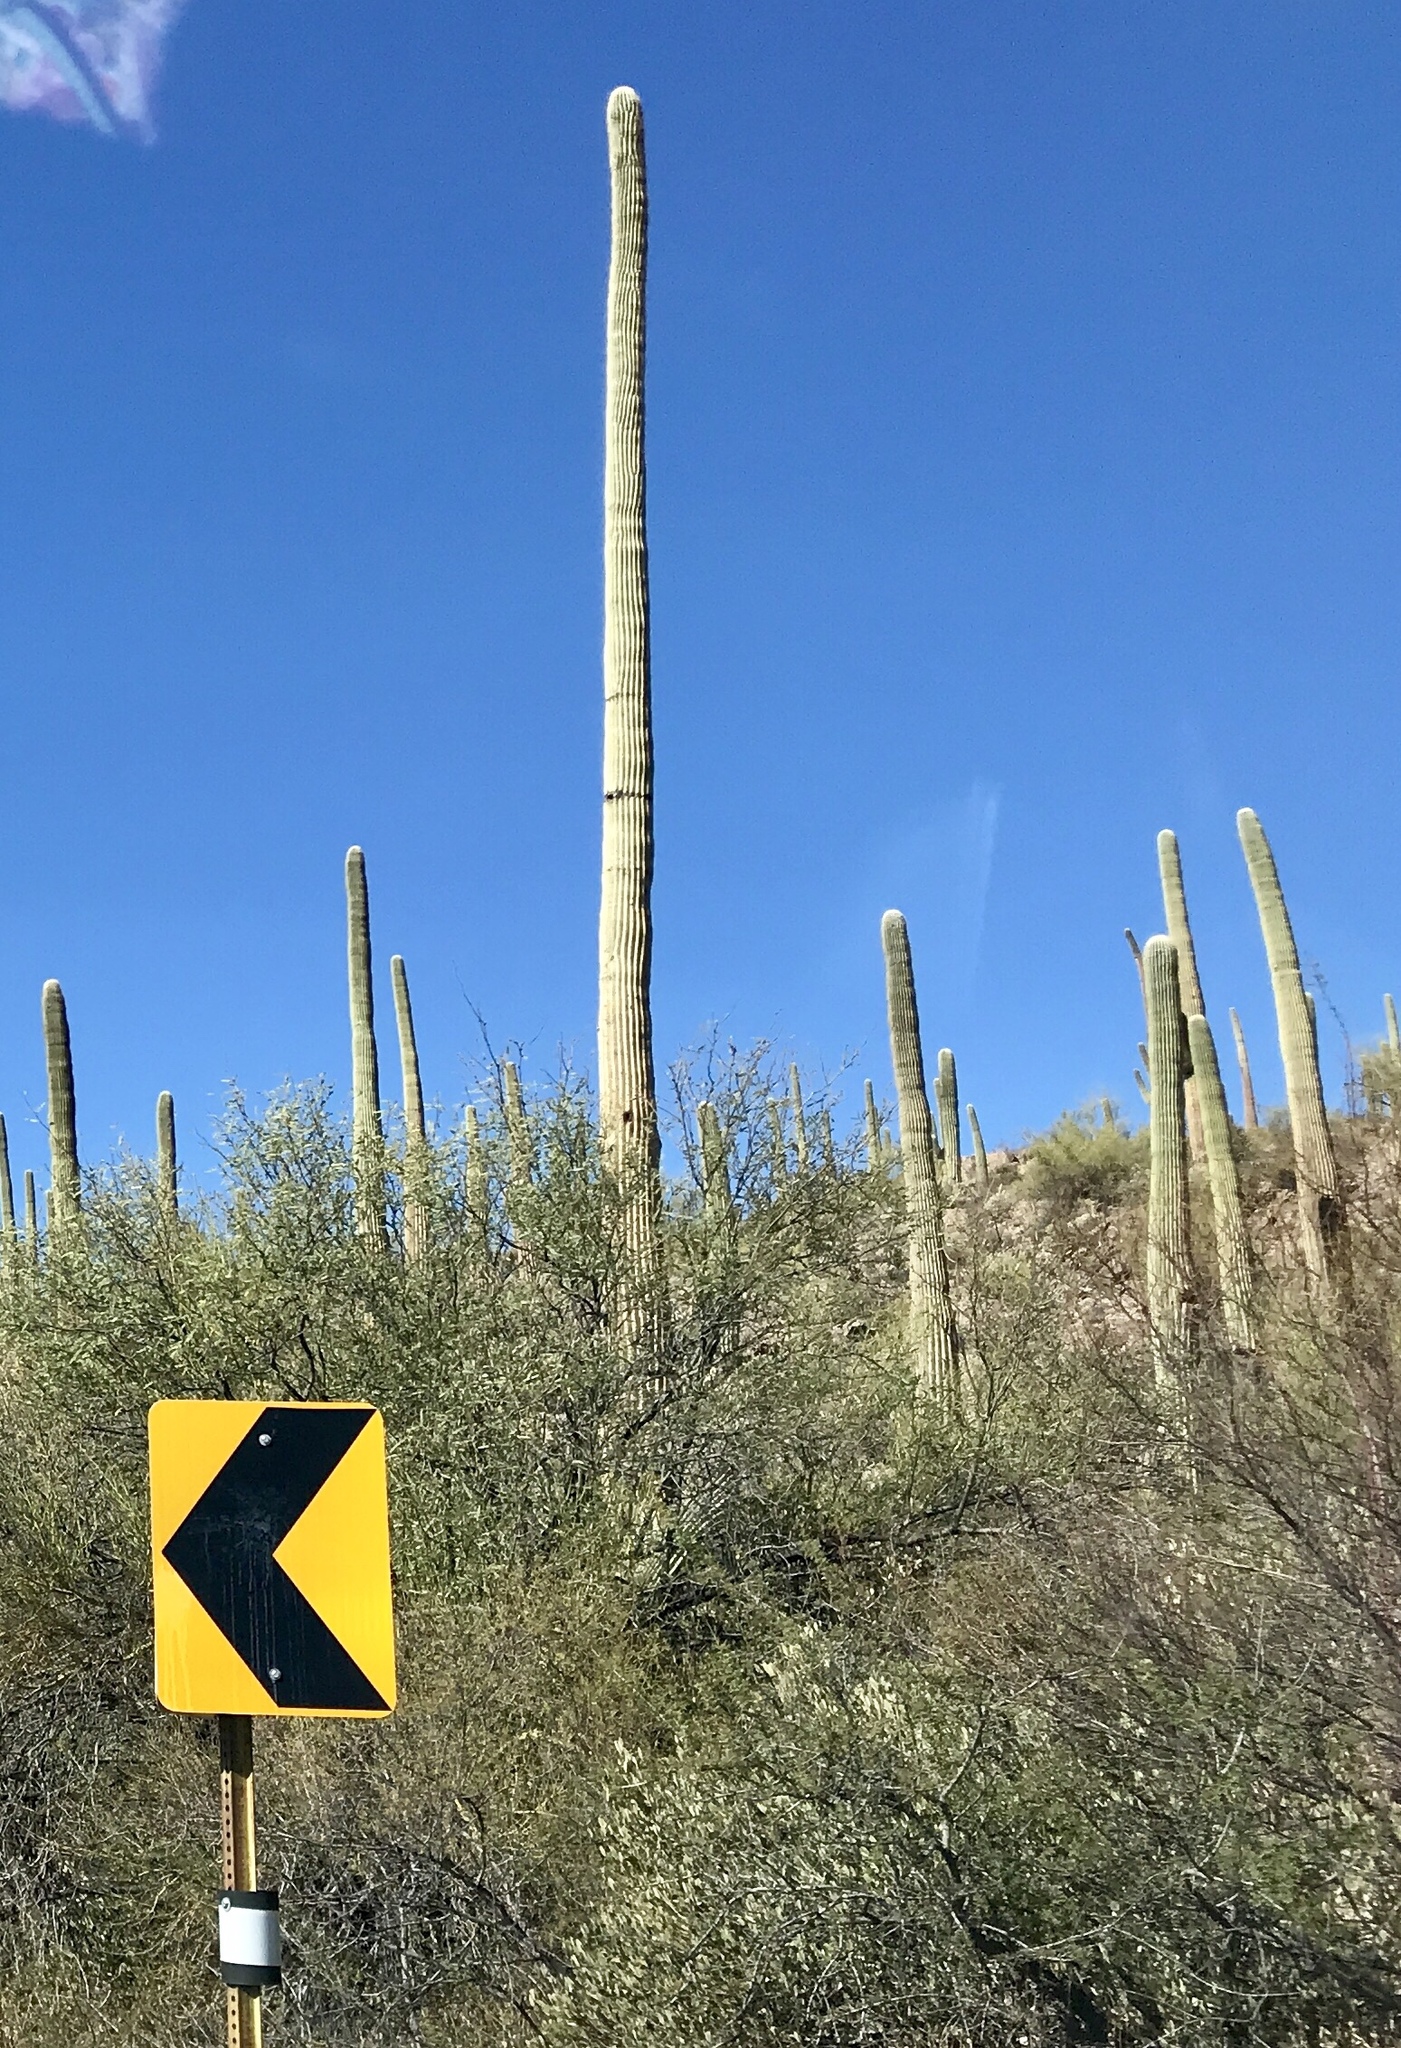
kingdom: Plantae
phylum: Tracheophyta
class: Magnoliopsida
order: Caryophyllales
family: Cactaceae
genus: Carnegiea
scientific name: Carnegiea gigantea
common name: Saguaro
